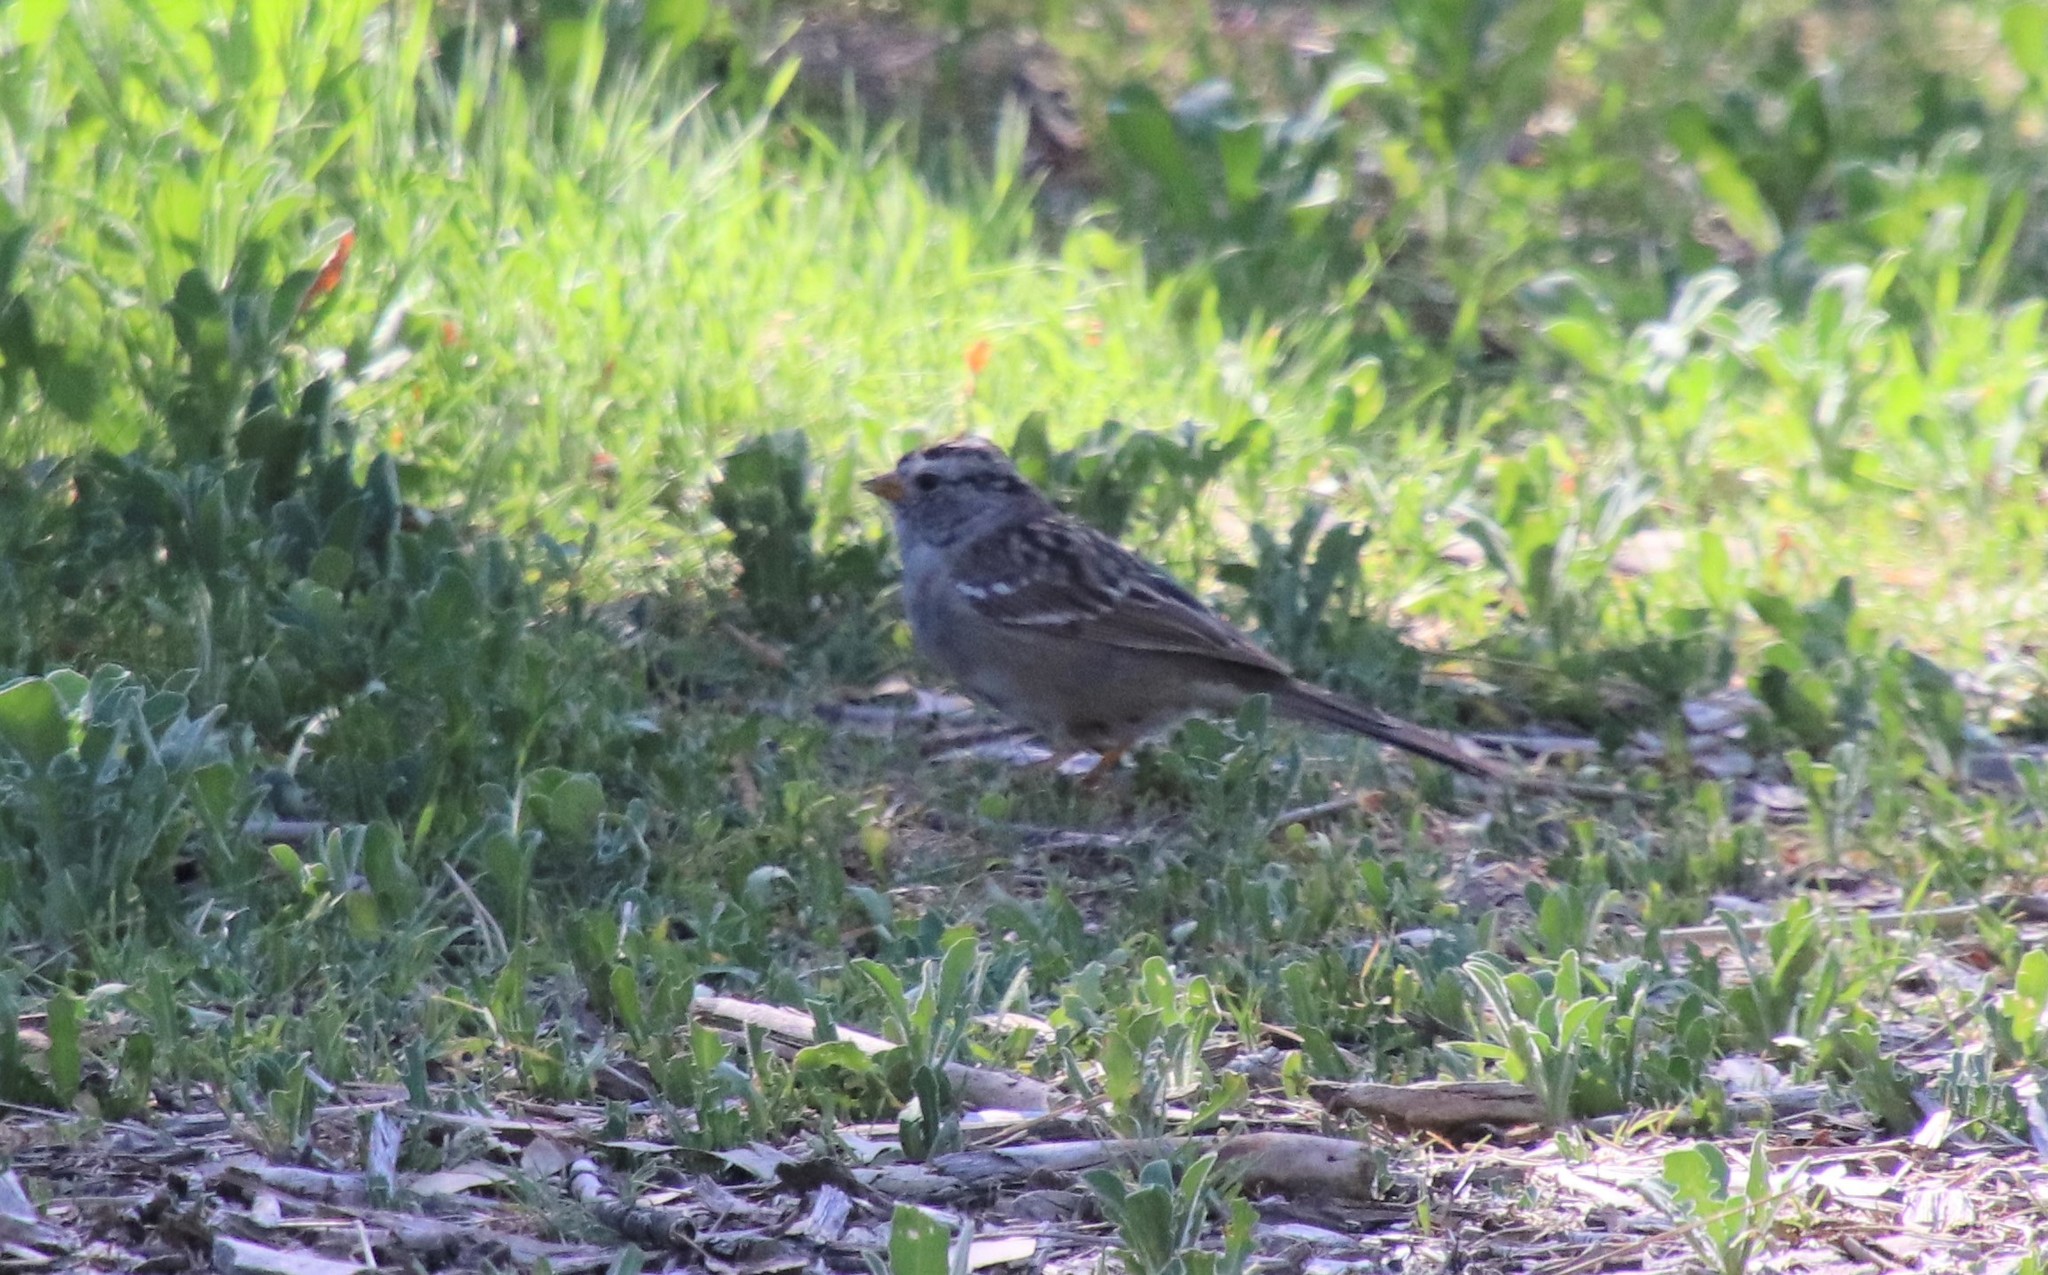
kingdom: Animalia
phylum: Chordata
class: Aves
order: Passeriformes
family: Passerellidae
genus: Zonotrichia
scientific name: Zonotrichia leucophrys
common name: White-crowned sparrow
